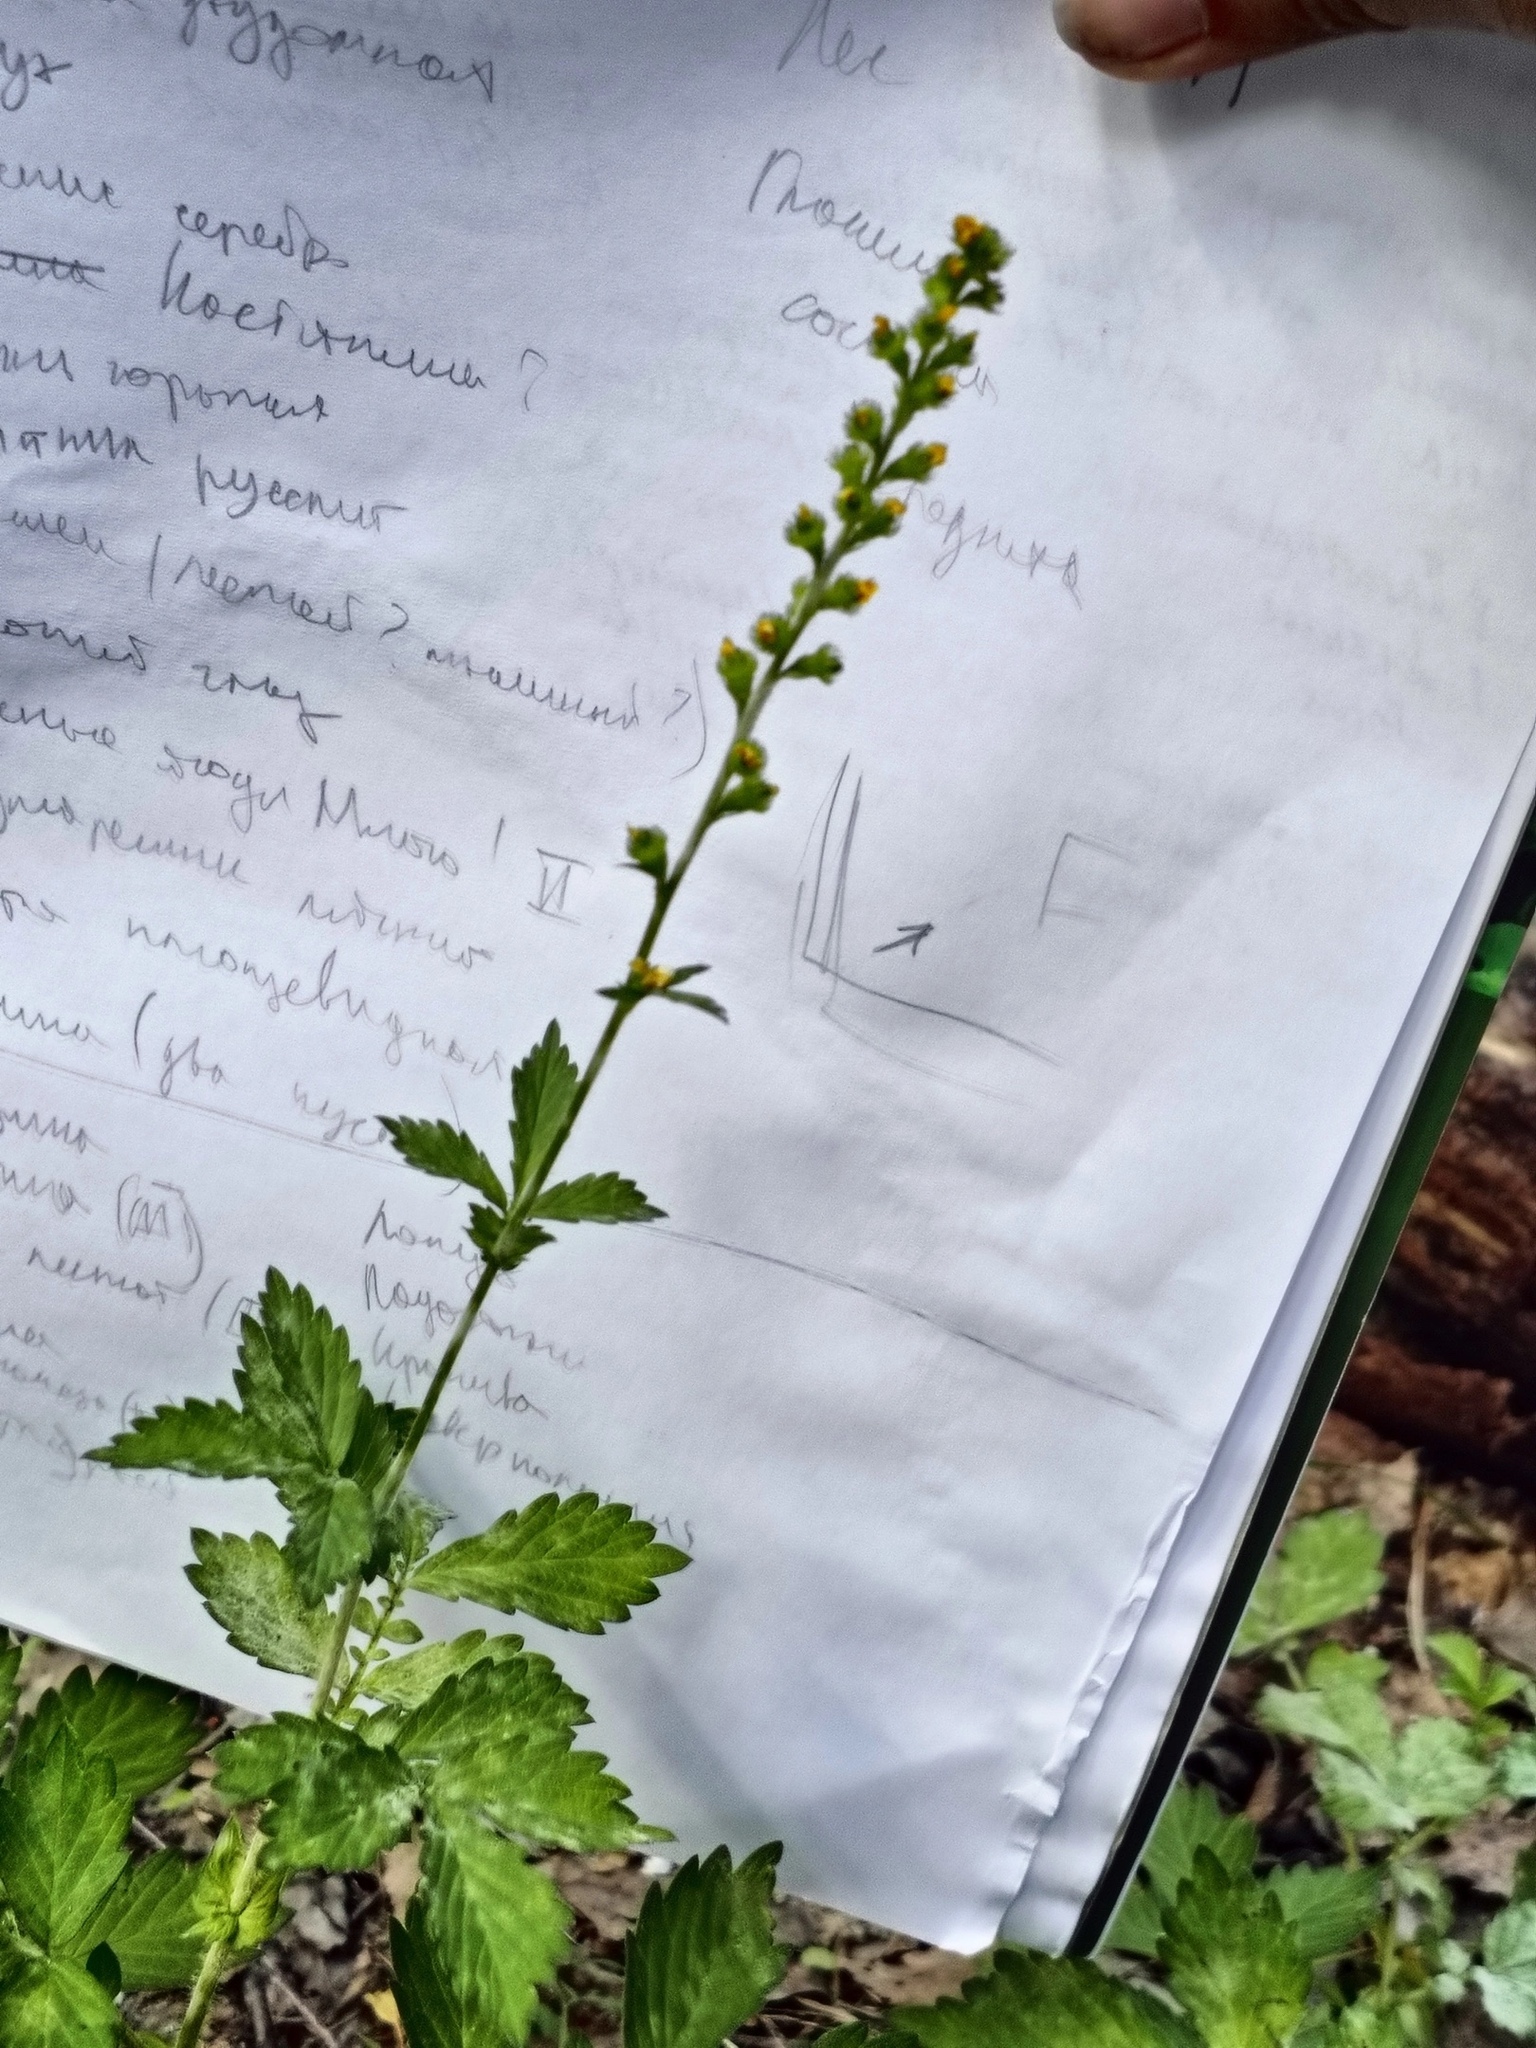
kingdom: Plantae
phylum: Tracheophyta
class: Magnoliopsida
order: Rosales
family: Rosaceae
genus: Agrimonia
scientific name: Agrimonia pilosa
